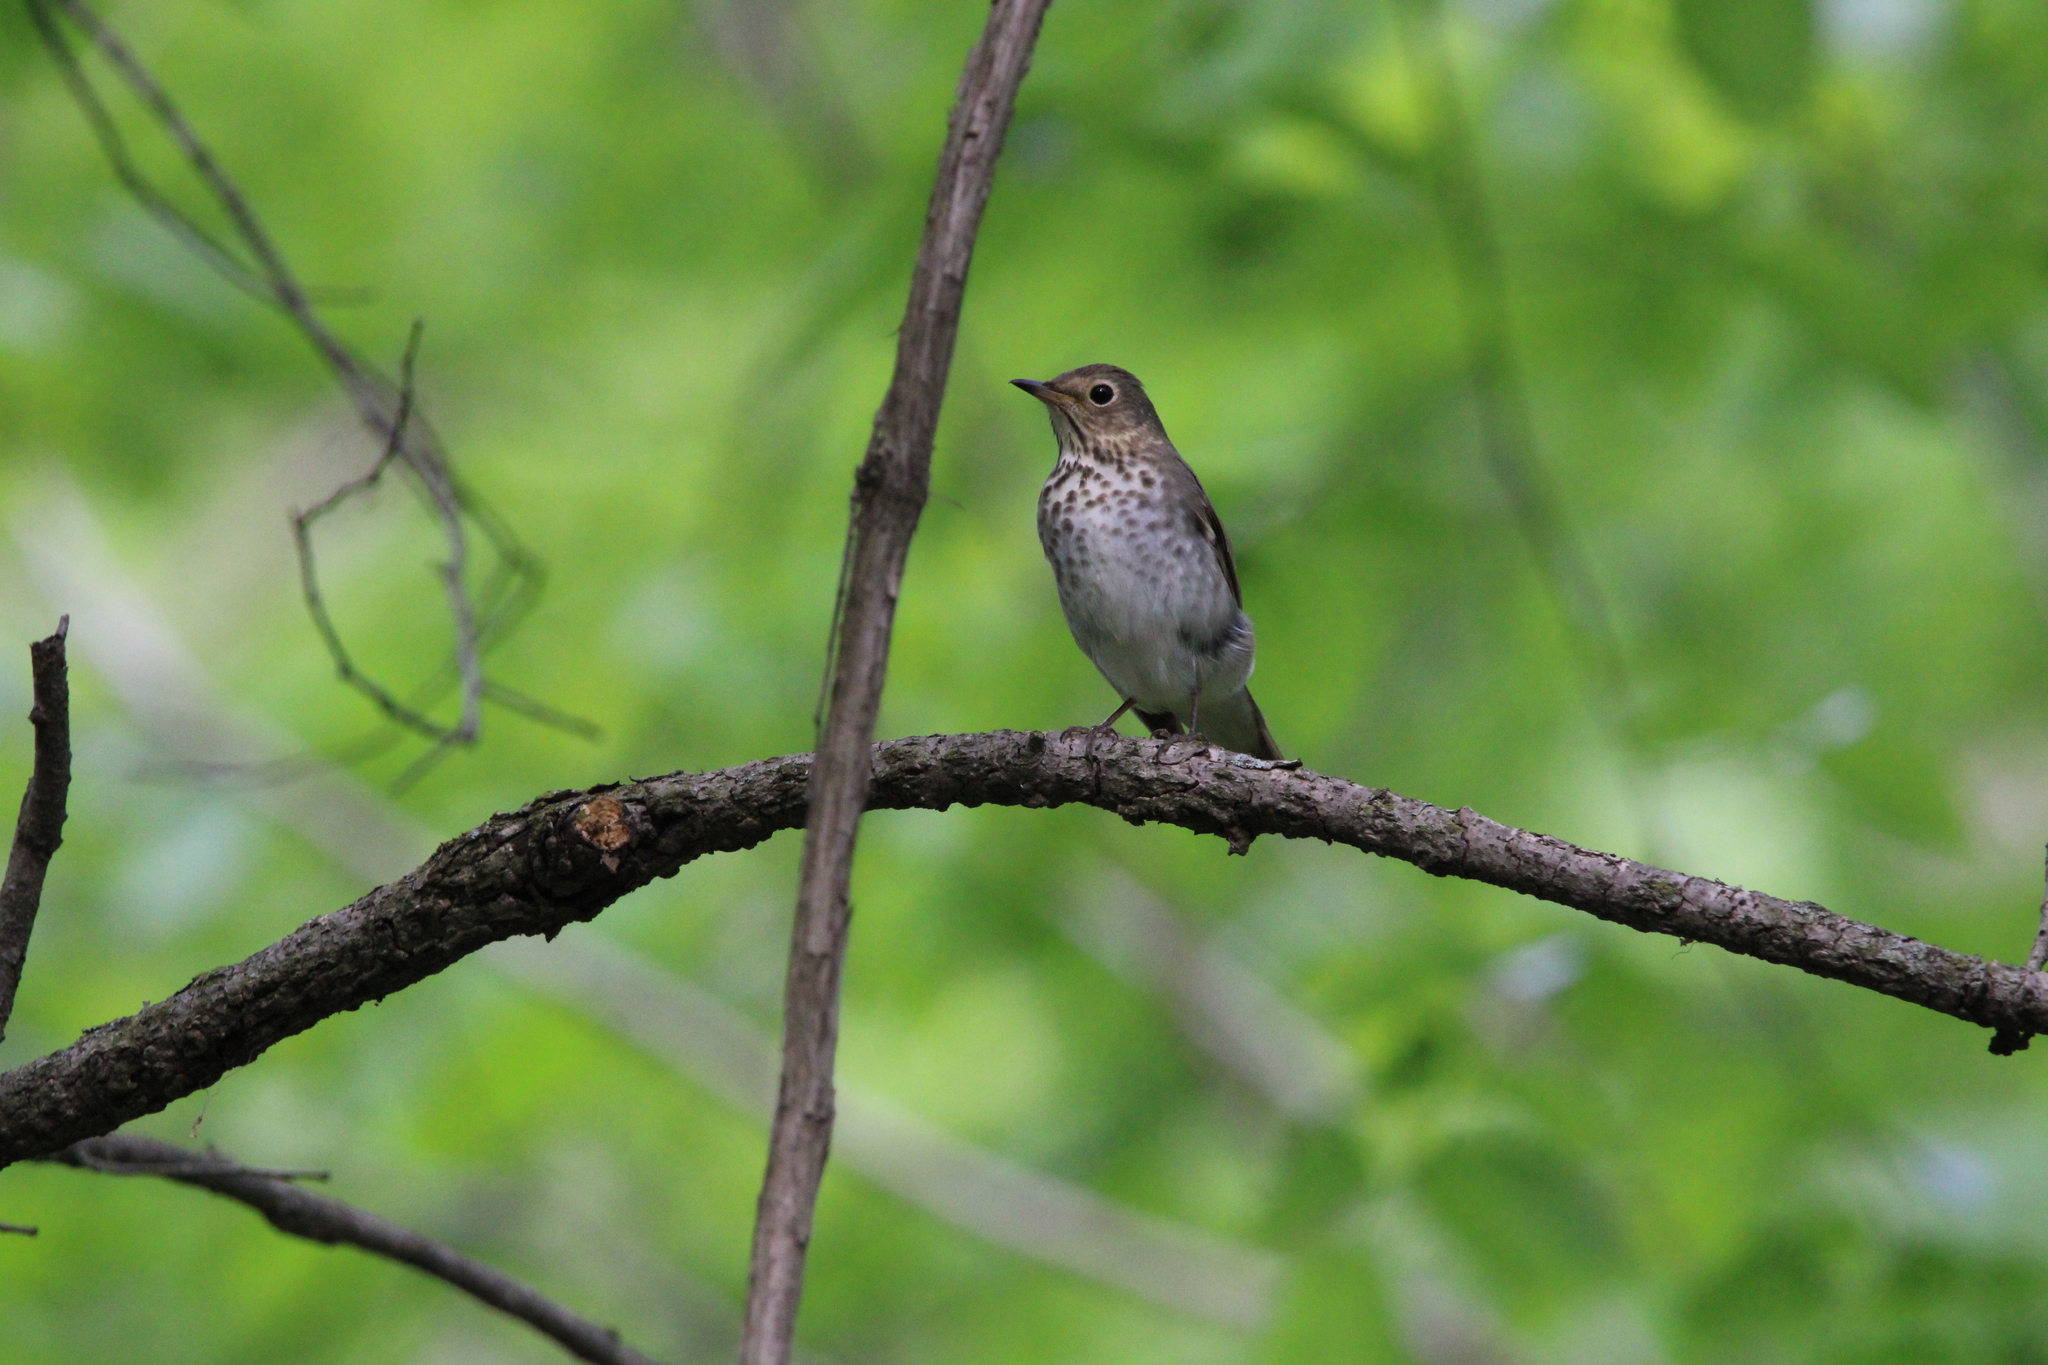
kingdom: Animalia
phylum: Chordata
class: Aves
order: Passeriformes
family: Turdidae
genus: Catharus
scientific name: Catharus ustulatus
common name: Swainson's thrush
